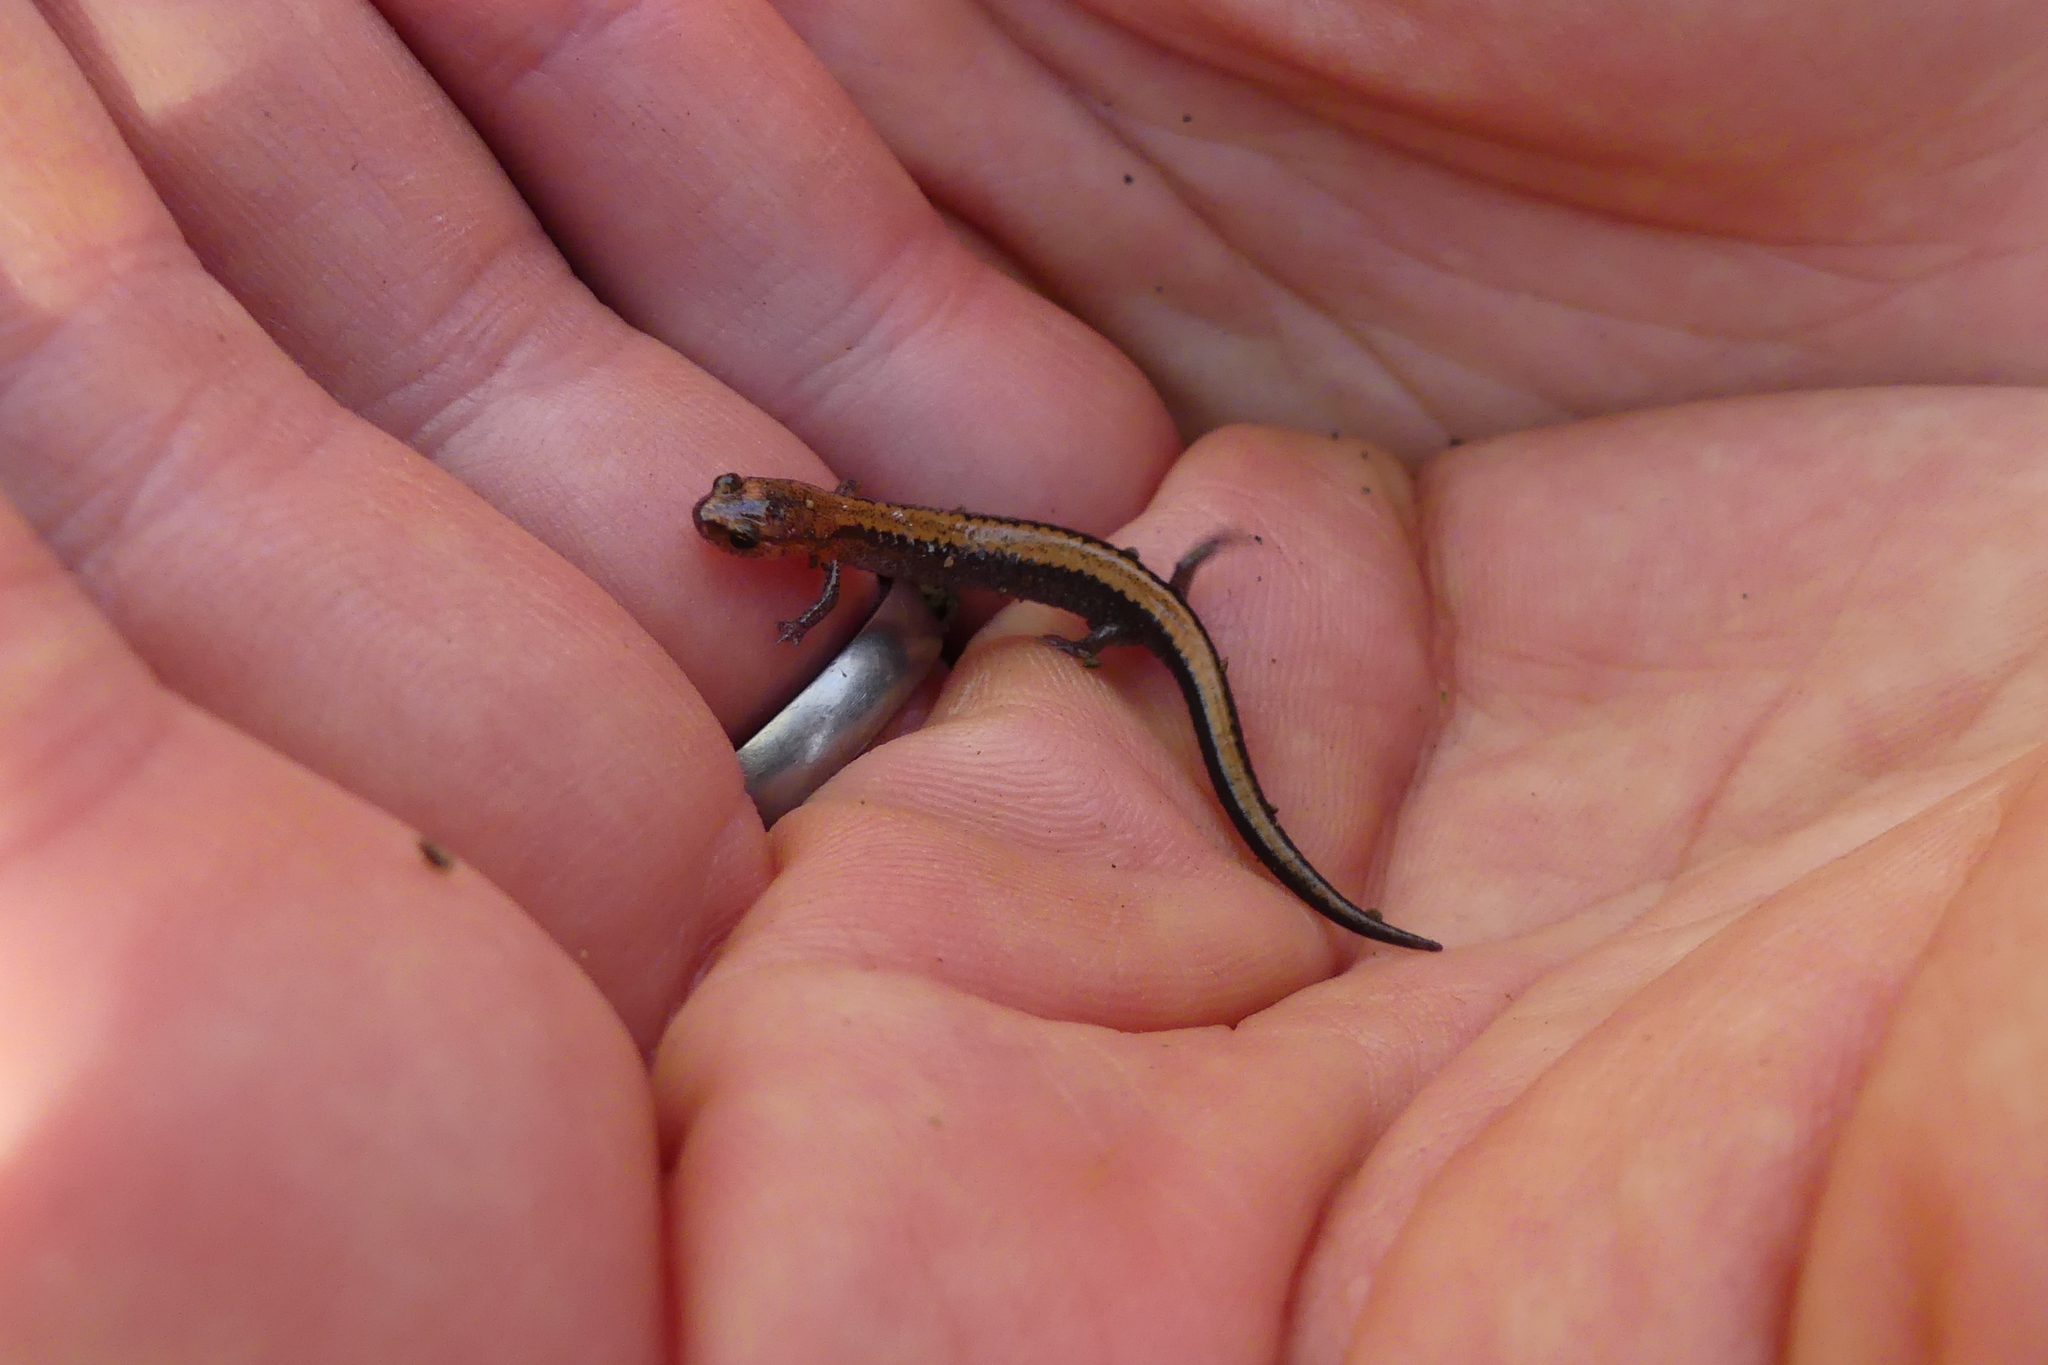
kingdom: Animalia
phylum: Chordata
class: Amphibia
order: Caudata
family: Plethodontidae
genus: Plethodon
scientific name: Plethodon cinereus
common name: Redback salamander
